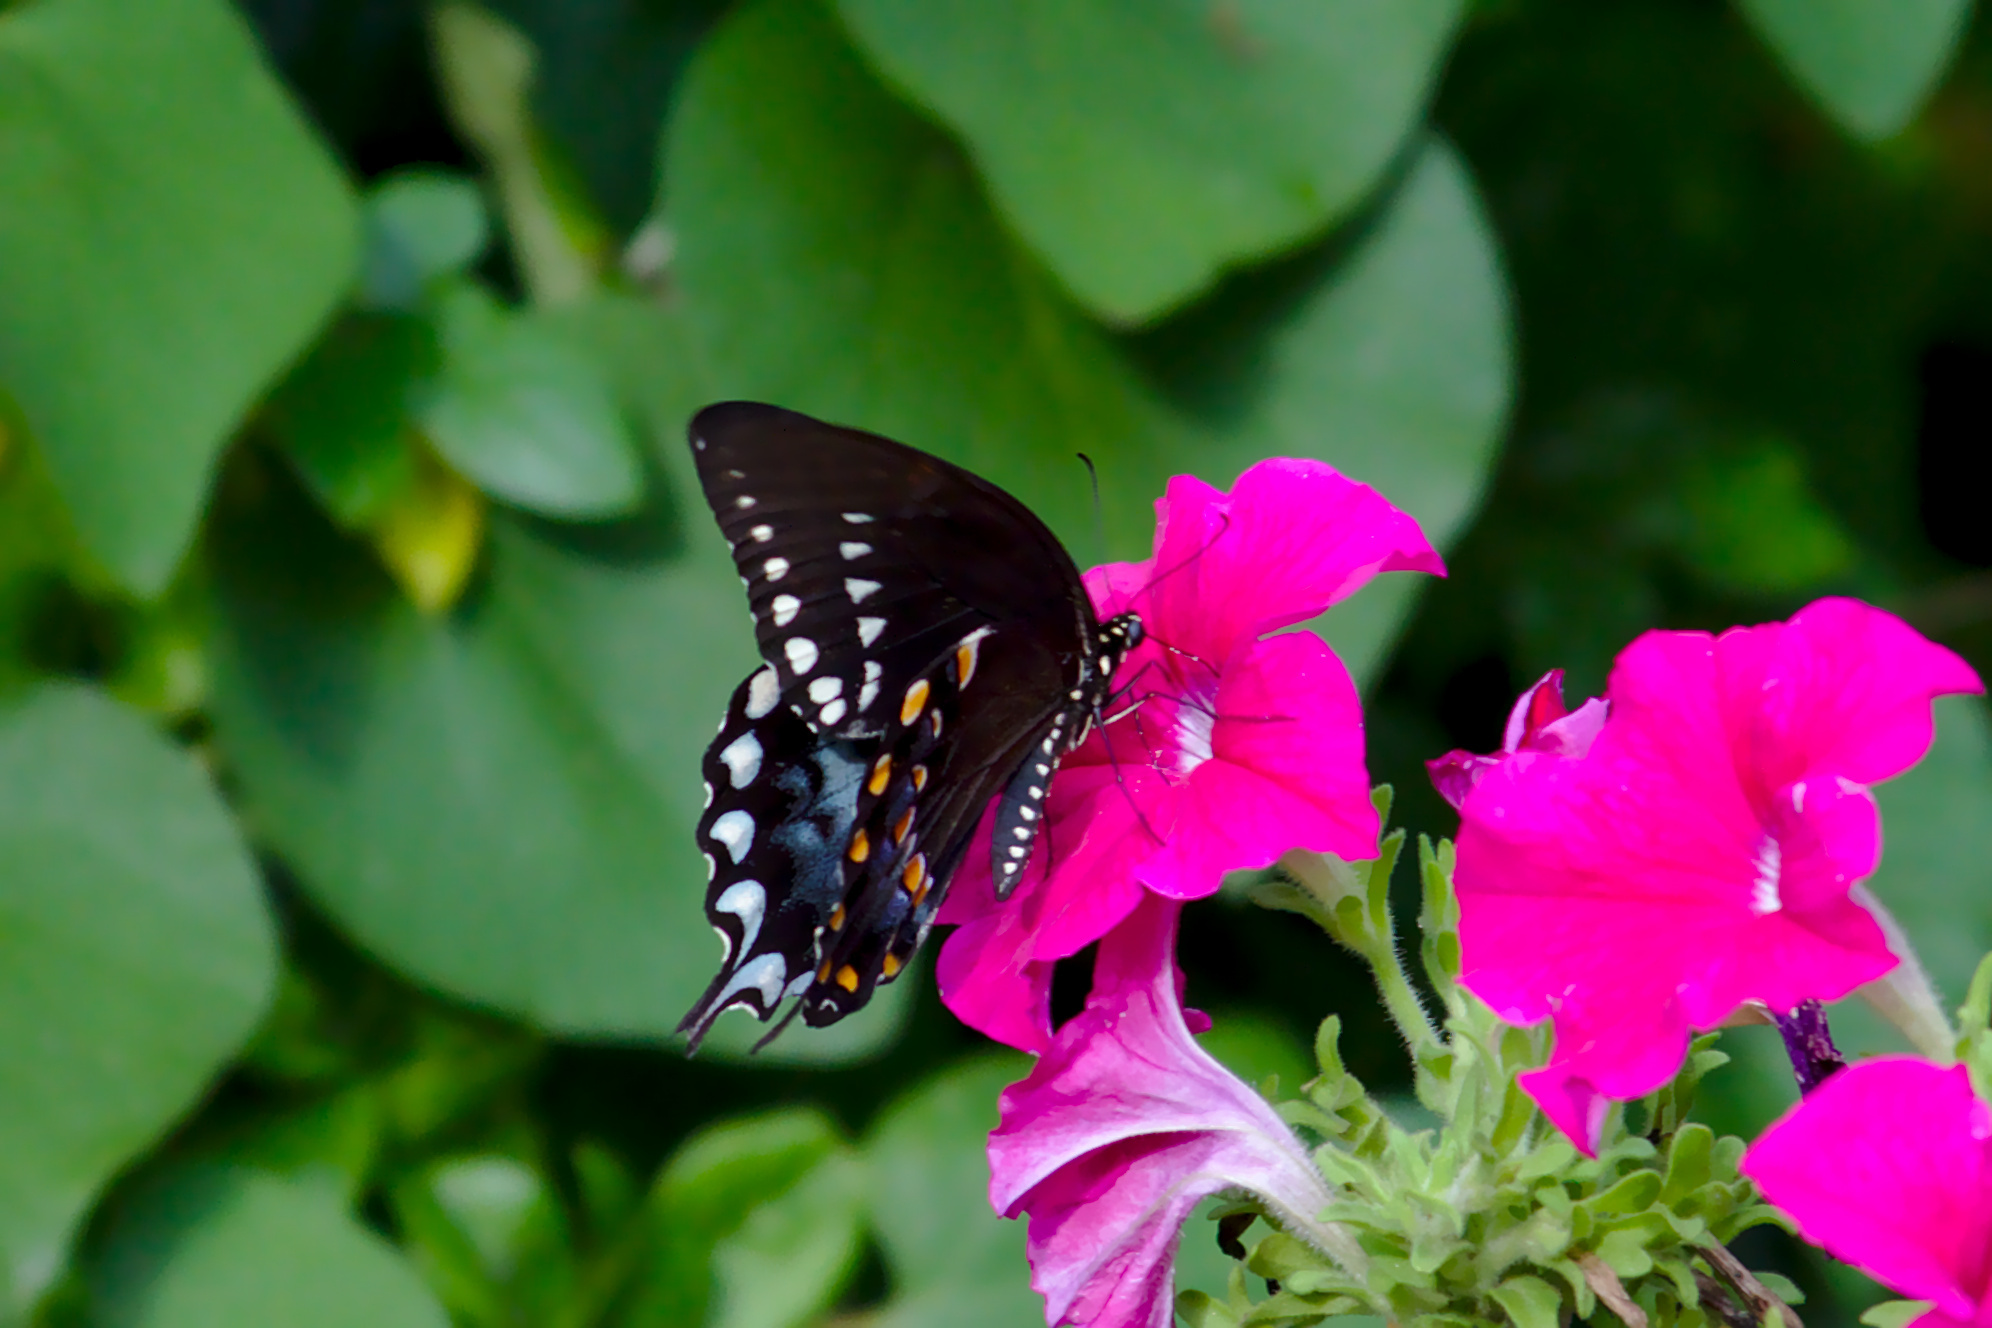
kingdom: Animalia
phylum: Arthropoda
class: Insecta
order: Lepidoptera
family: Papilionidae
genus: Papilio
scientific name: Papilio troilus
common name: Spicebush swallowtail
